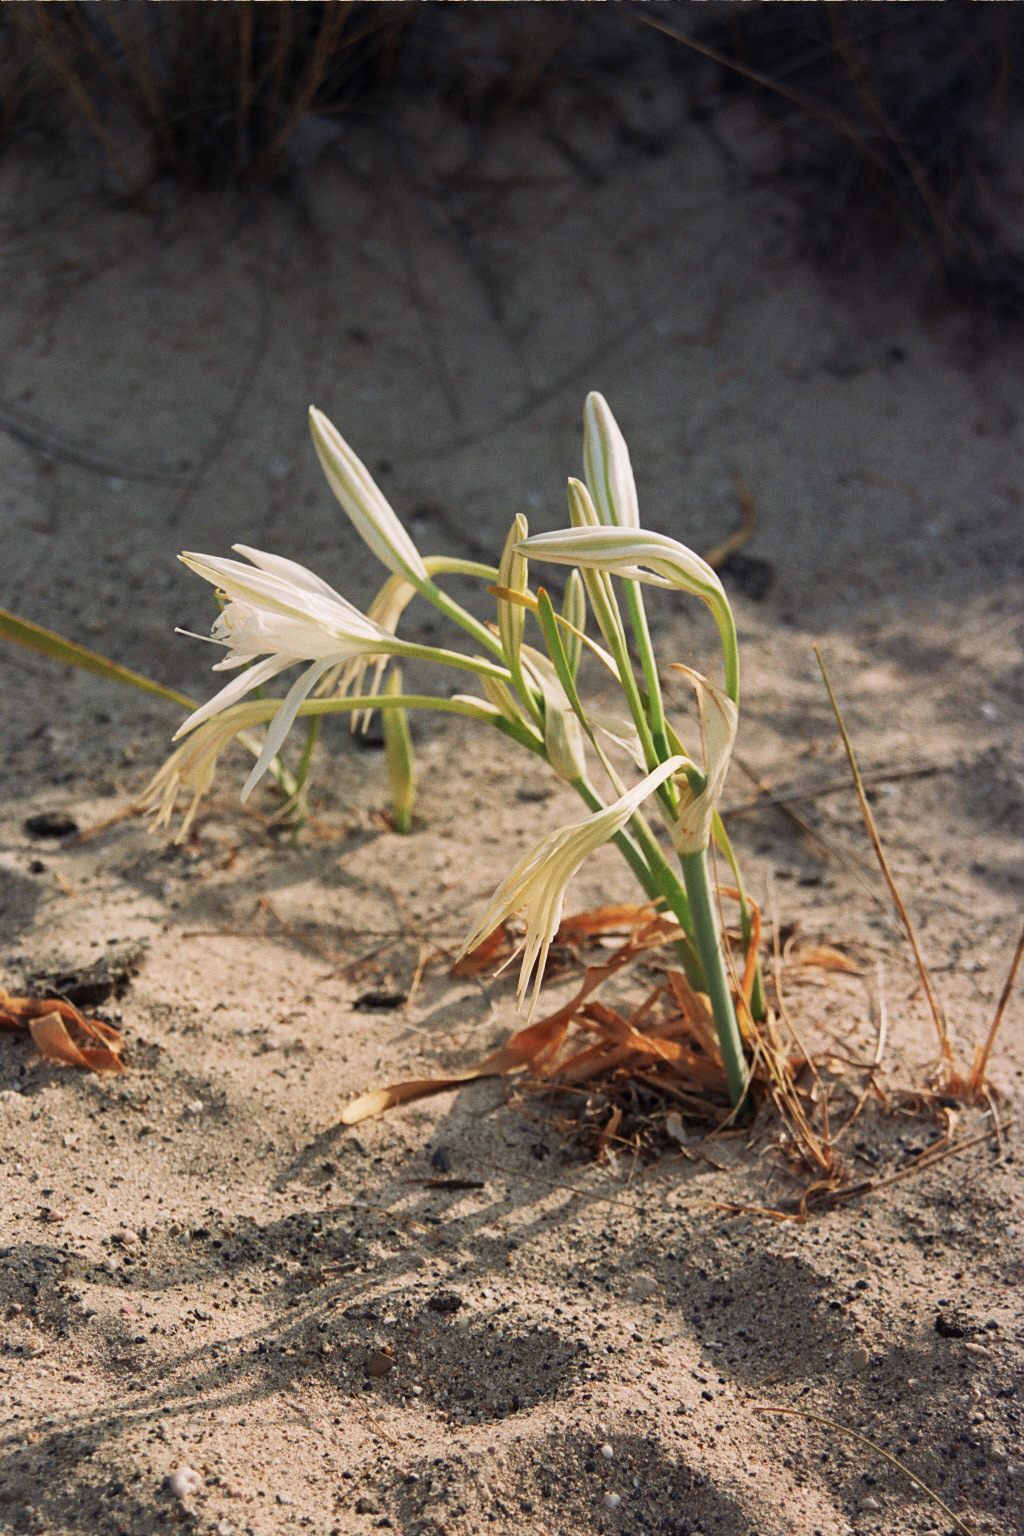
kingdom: Plantae
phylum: Tracheophyta
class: Liliopsida
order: Asparagales
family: Amaryllidaceae
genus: Pancratium
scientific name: Pancratium maritimum
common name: Sea-daffodil
